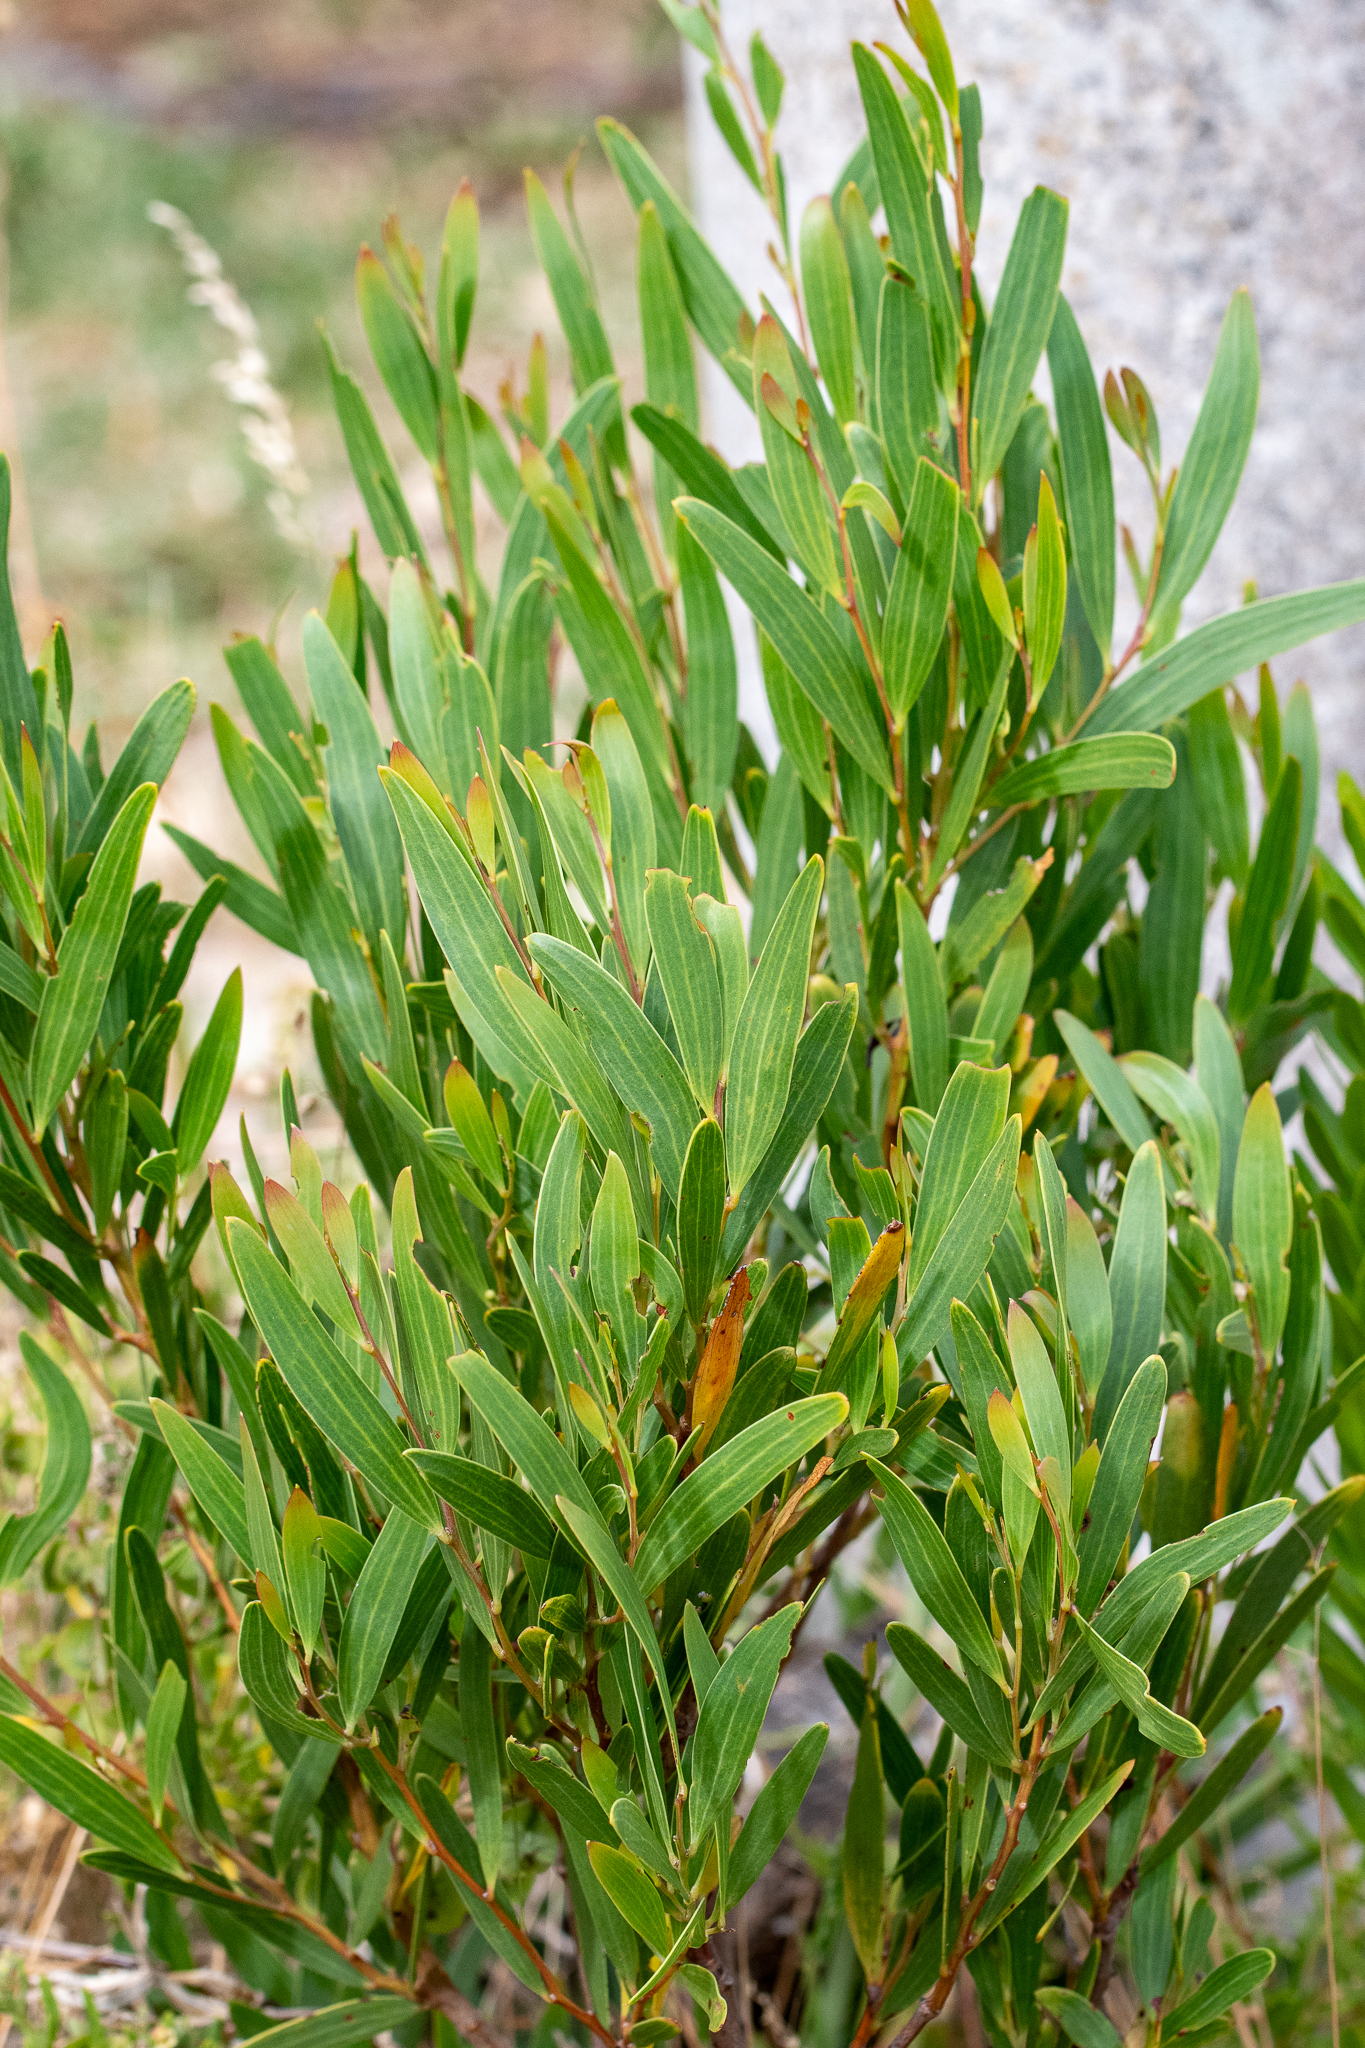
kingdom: Plantae
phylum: Tracheophyta
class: Magnoliopsida
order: Fabales
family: Fabaceae
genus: Acacia
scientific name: Acacia cyclops
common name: Coastal wattle
